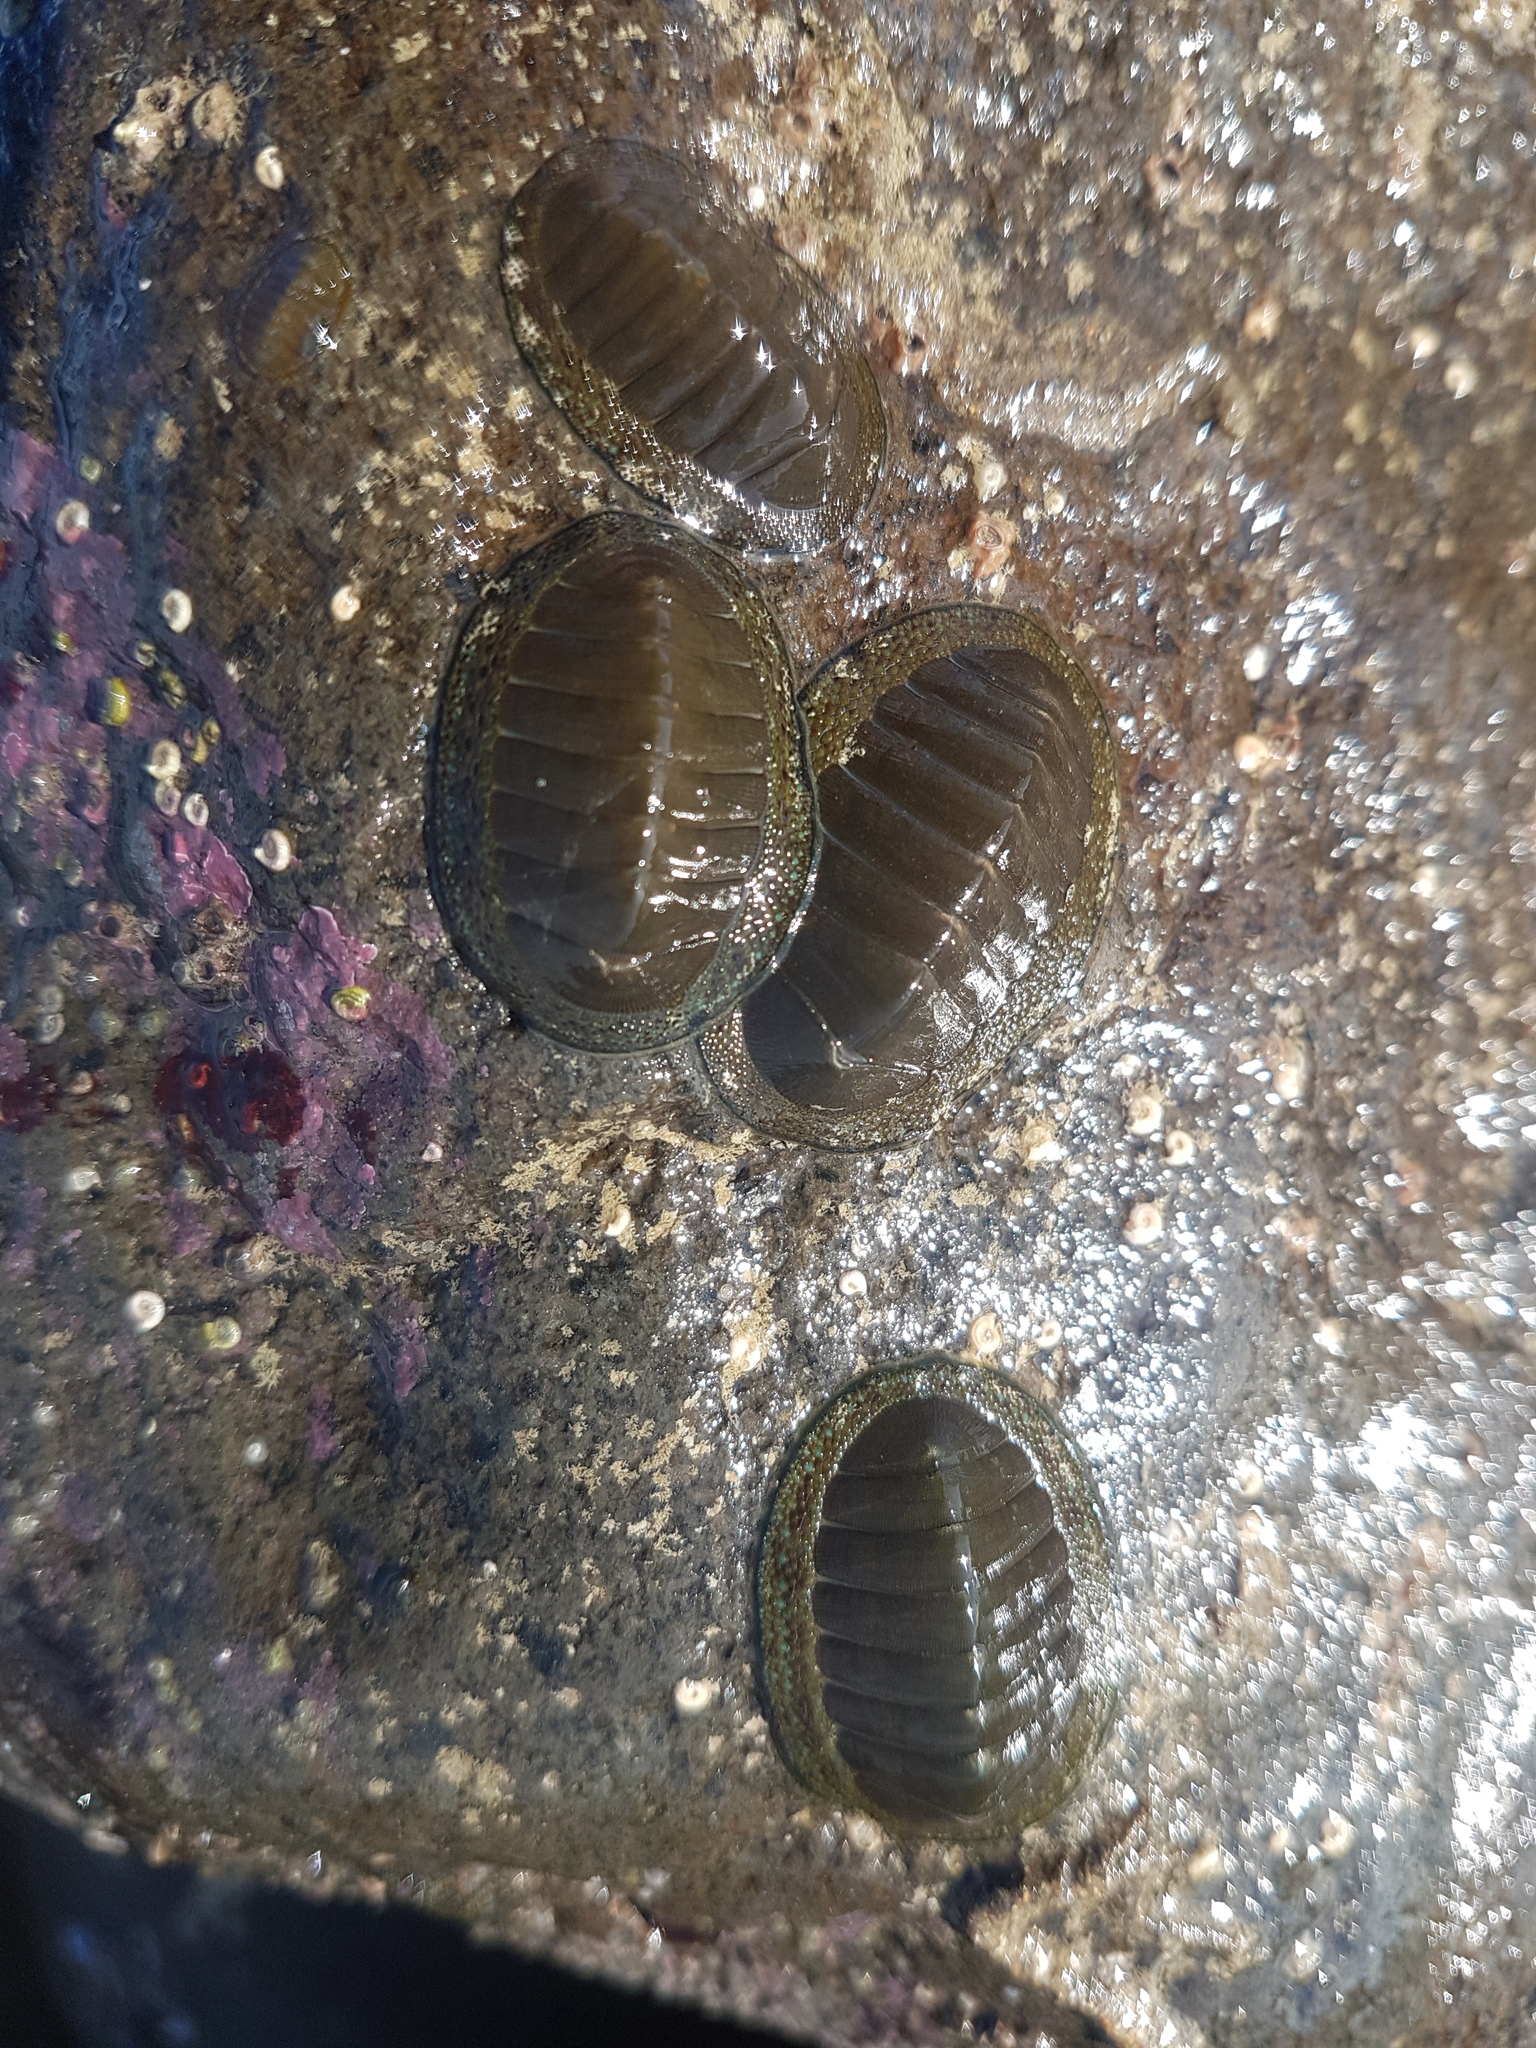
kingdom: Animalia
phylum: Mollusca
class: Polyplacophora
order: Chitonida
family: Chitonidae
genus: Chiton
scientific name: Chiton glaucus
